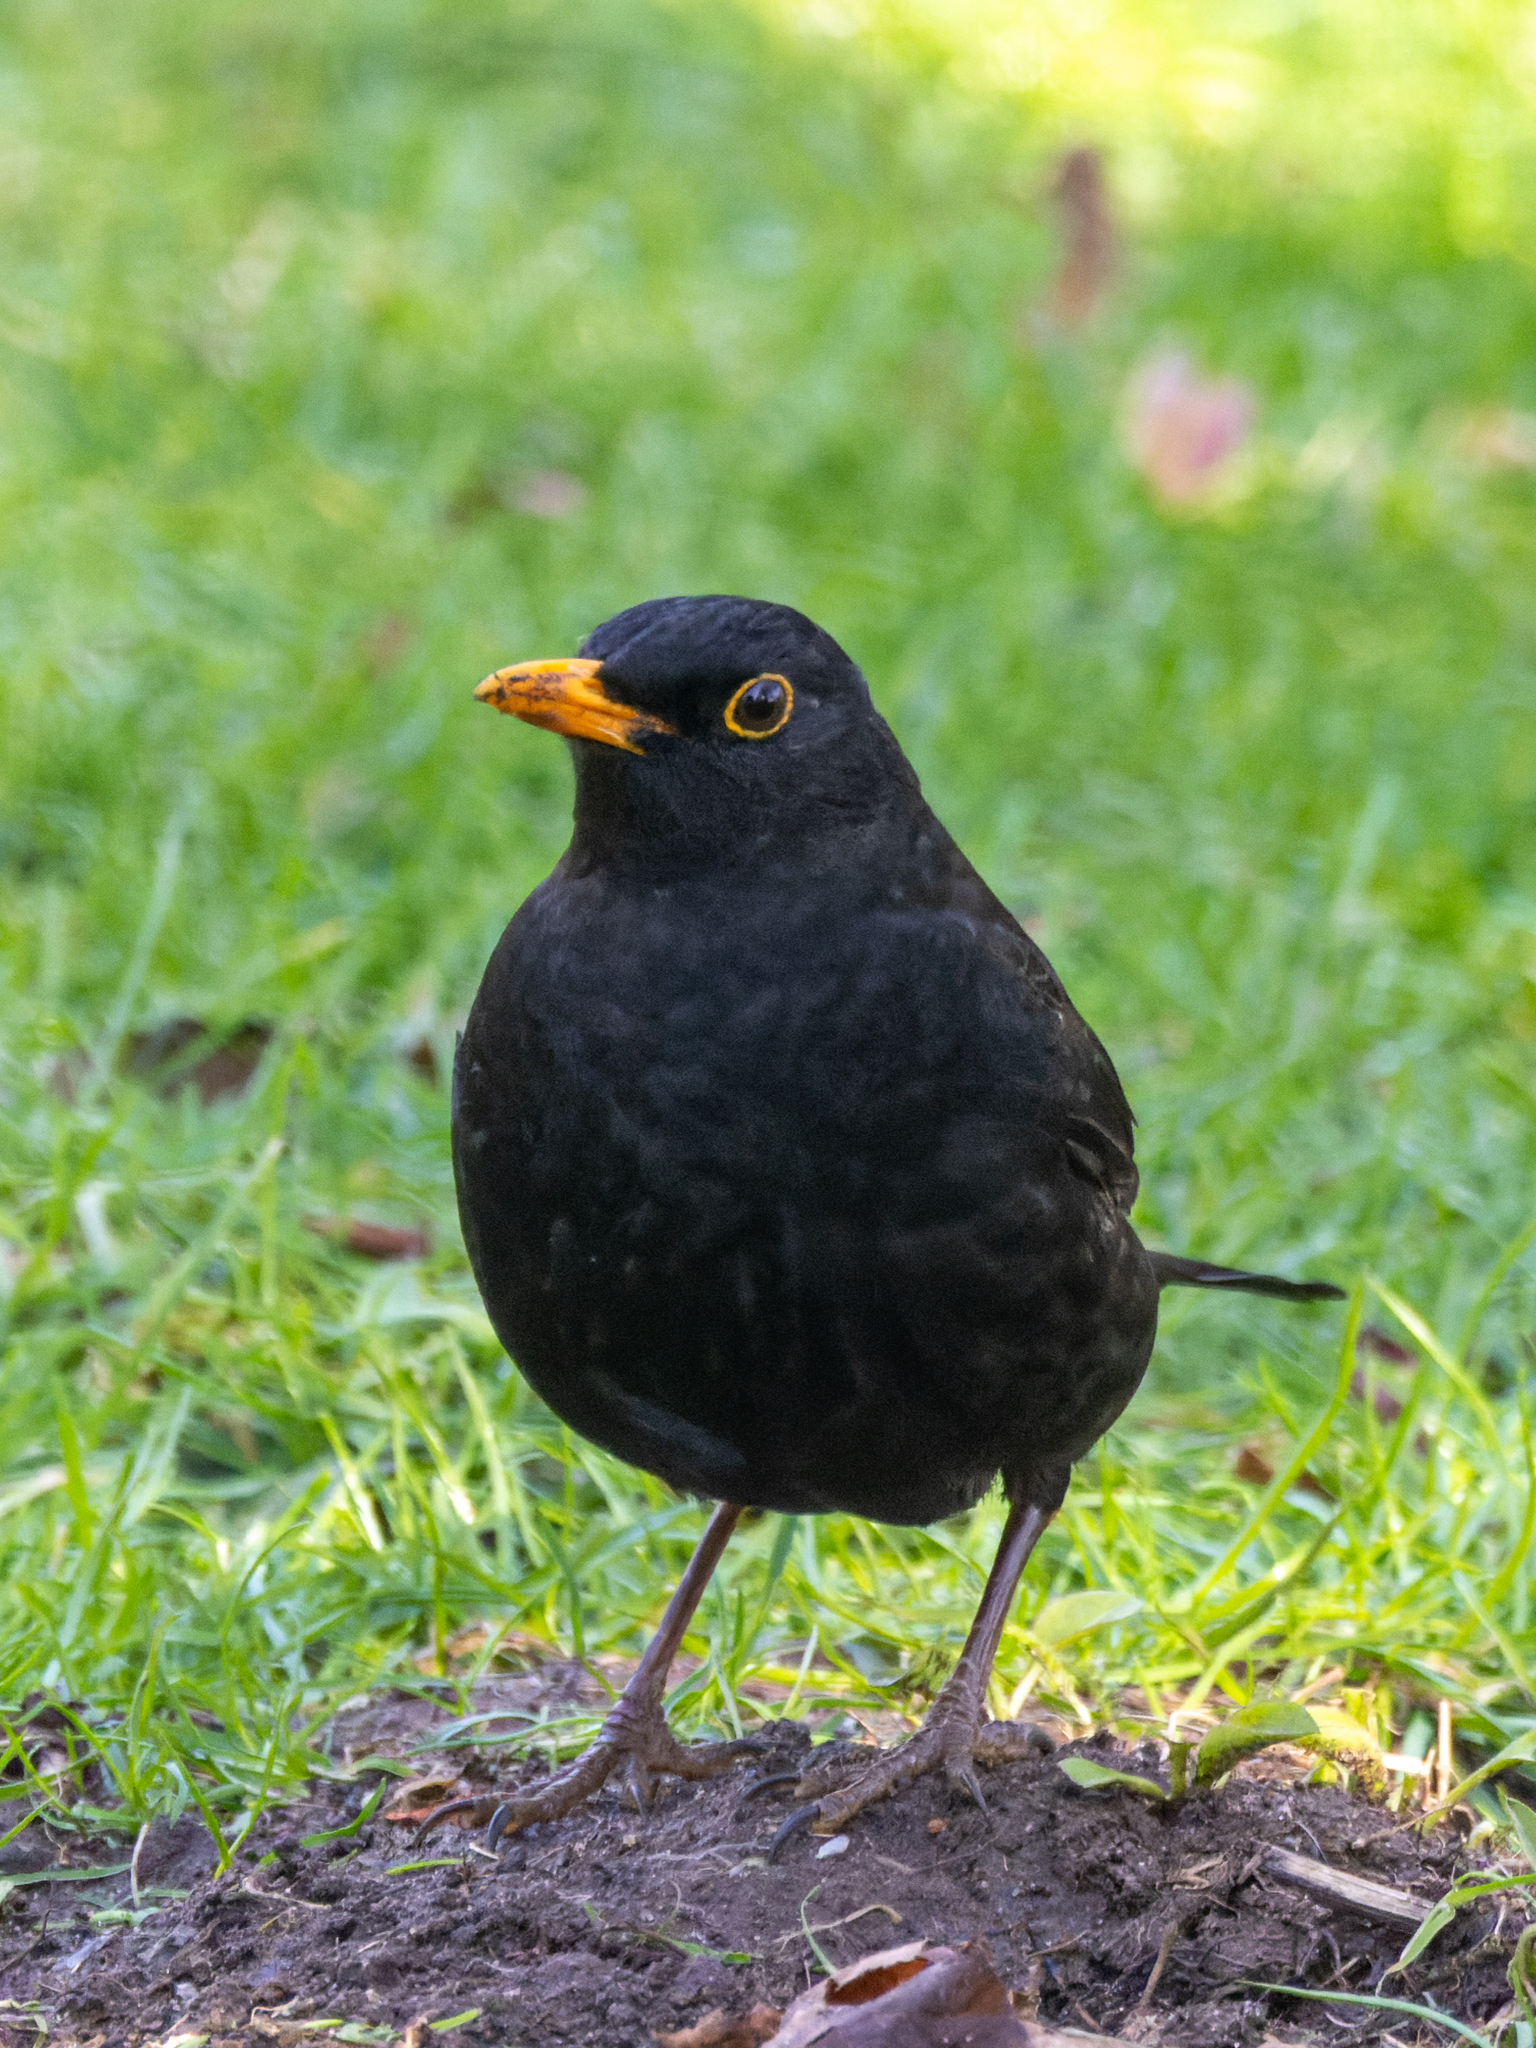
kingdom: Animalia
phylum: Chordata
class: Aves
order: Passeriformes
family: Turdidae
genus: Turdus
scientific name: Turdus merula
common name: Common blackbird
